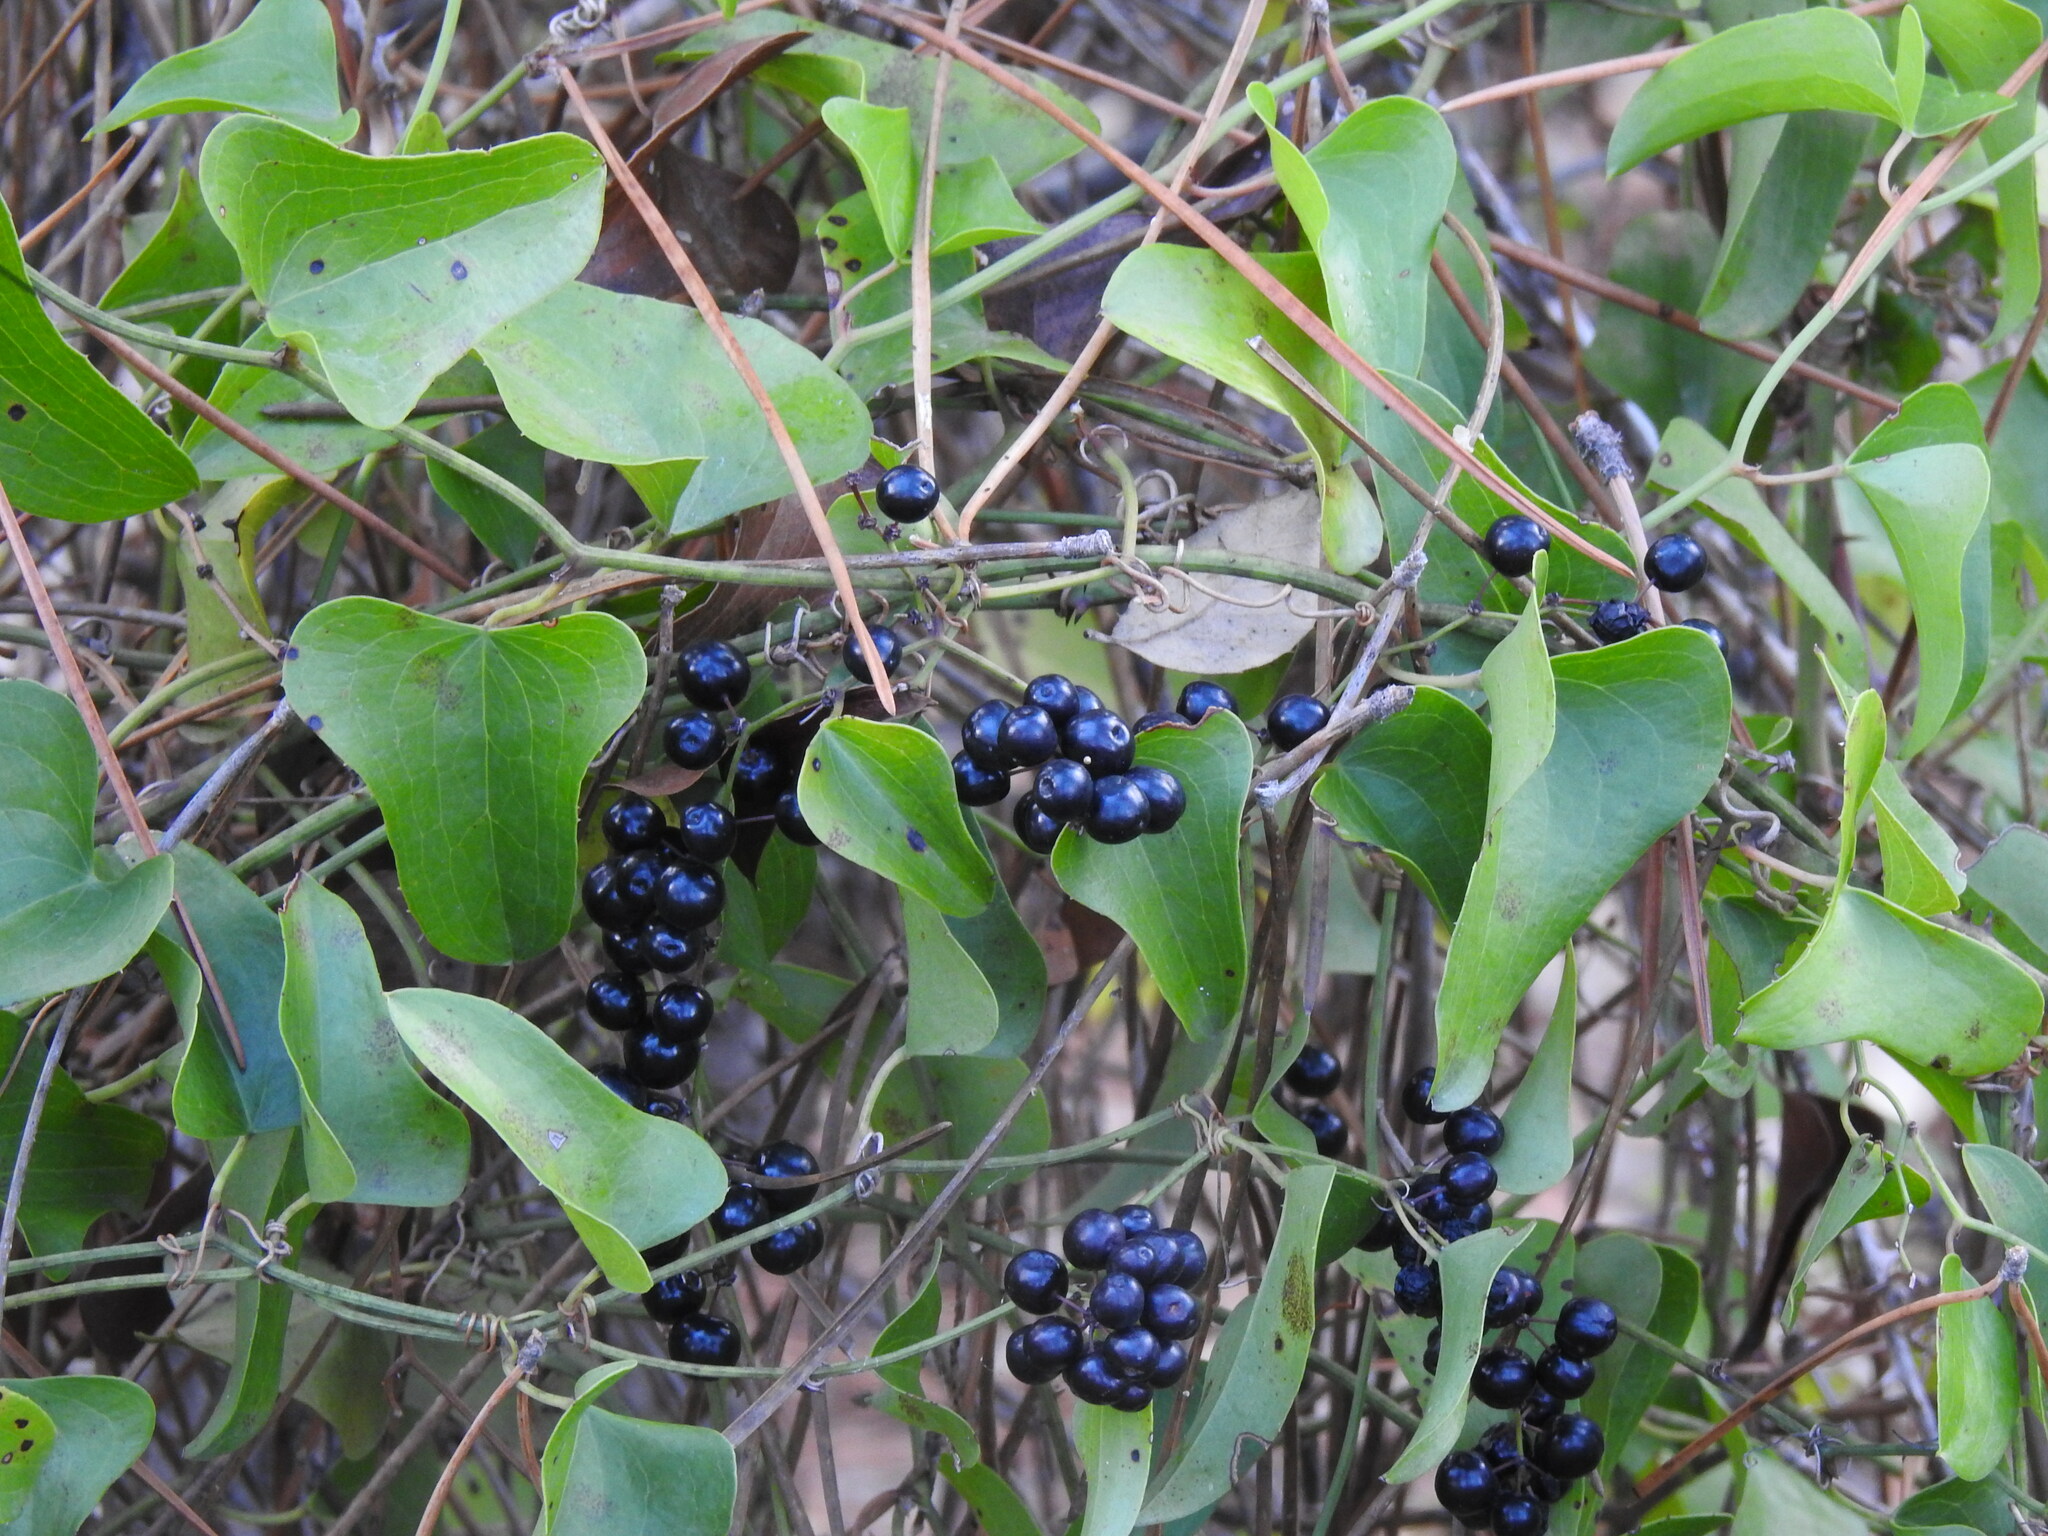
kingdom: Plantae
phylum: Tracheophyta
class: Liliopsida
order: Liliales
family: Smilacaceae
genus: Smilax
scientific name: Smilax aspera
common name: Common smilax
